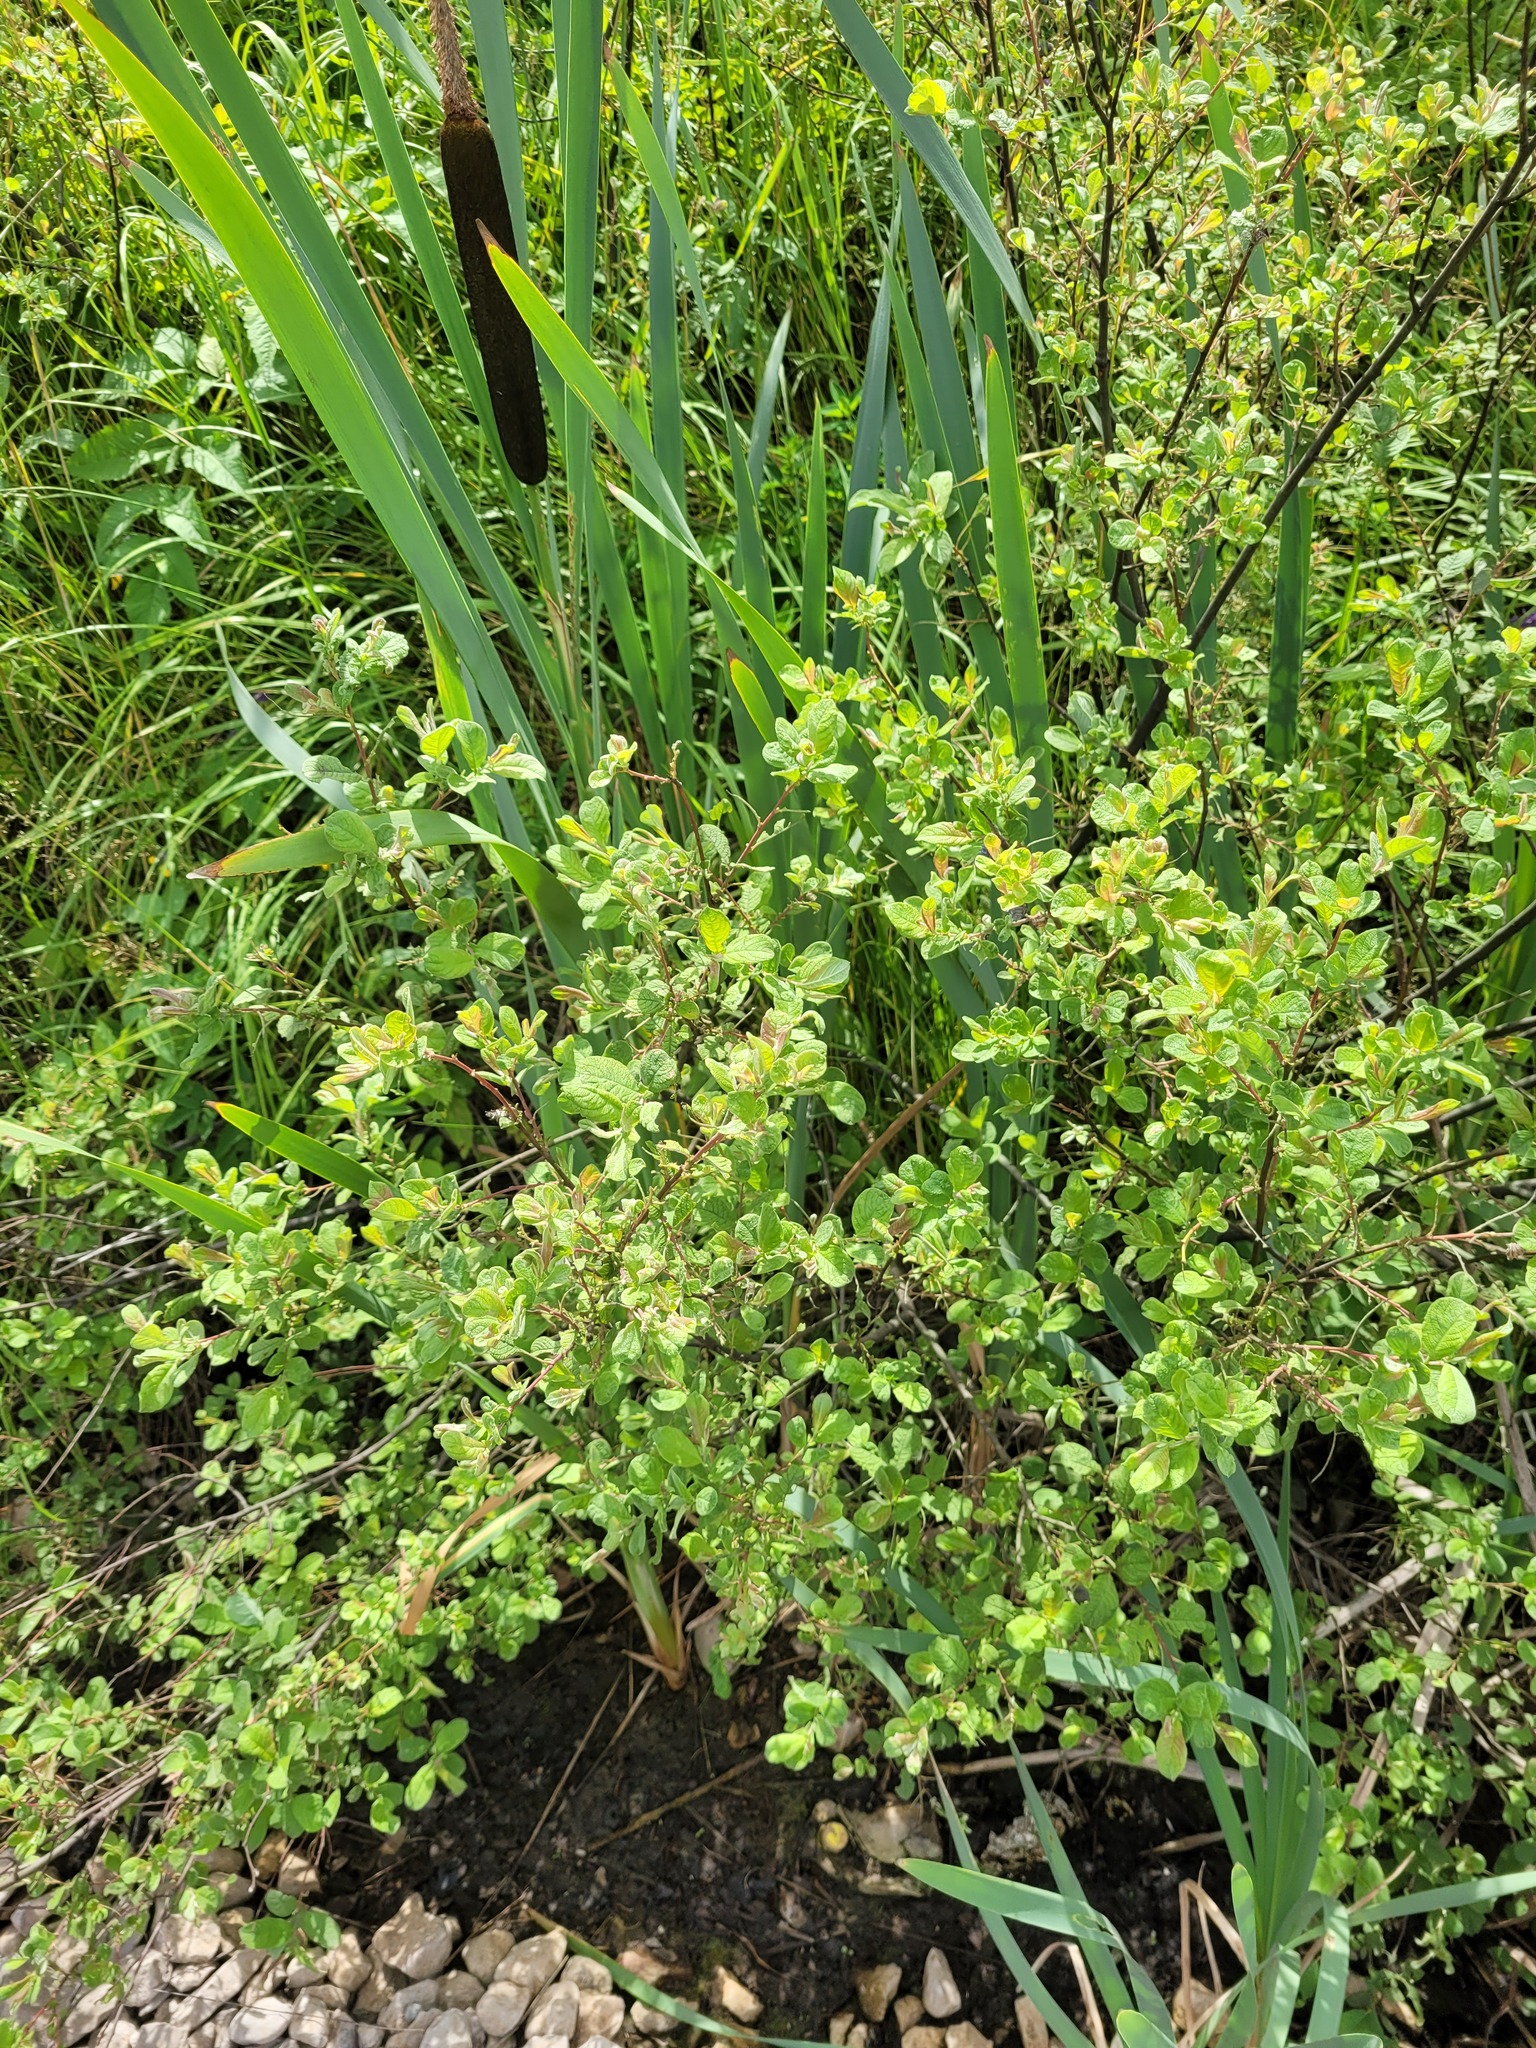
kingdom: Plantae
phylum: Tracheophyta
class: Magnoliopsida
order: Malpighiales
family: Salicaceae
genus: Salix
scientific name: Salix aurita
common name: Eared willow
